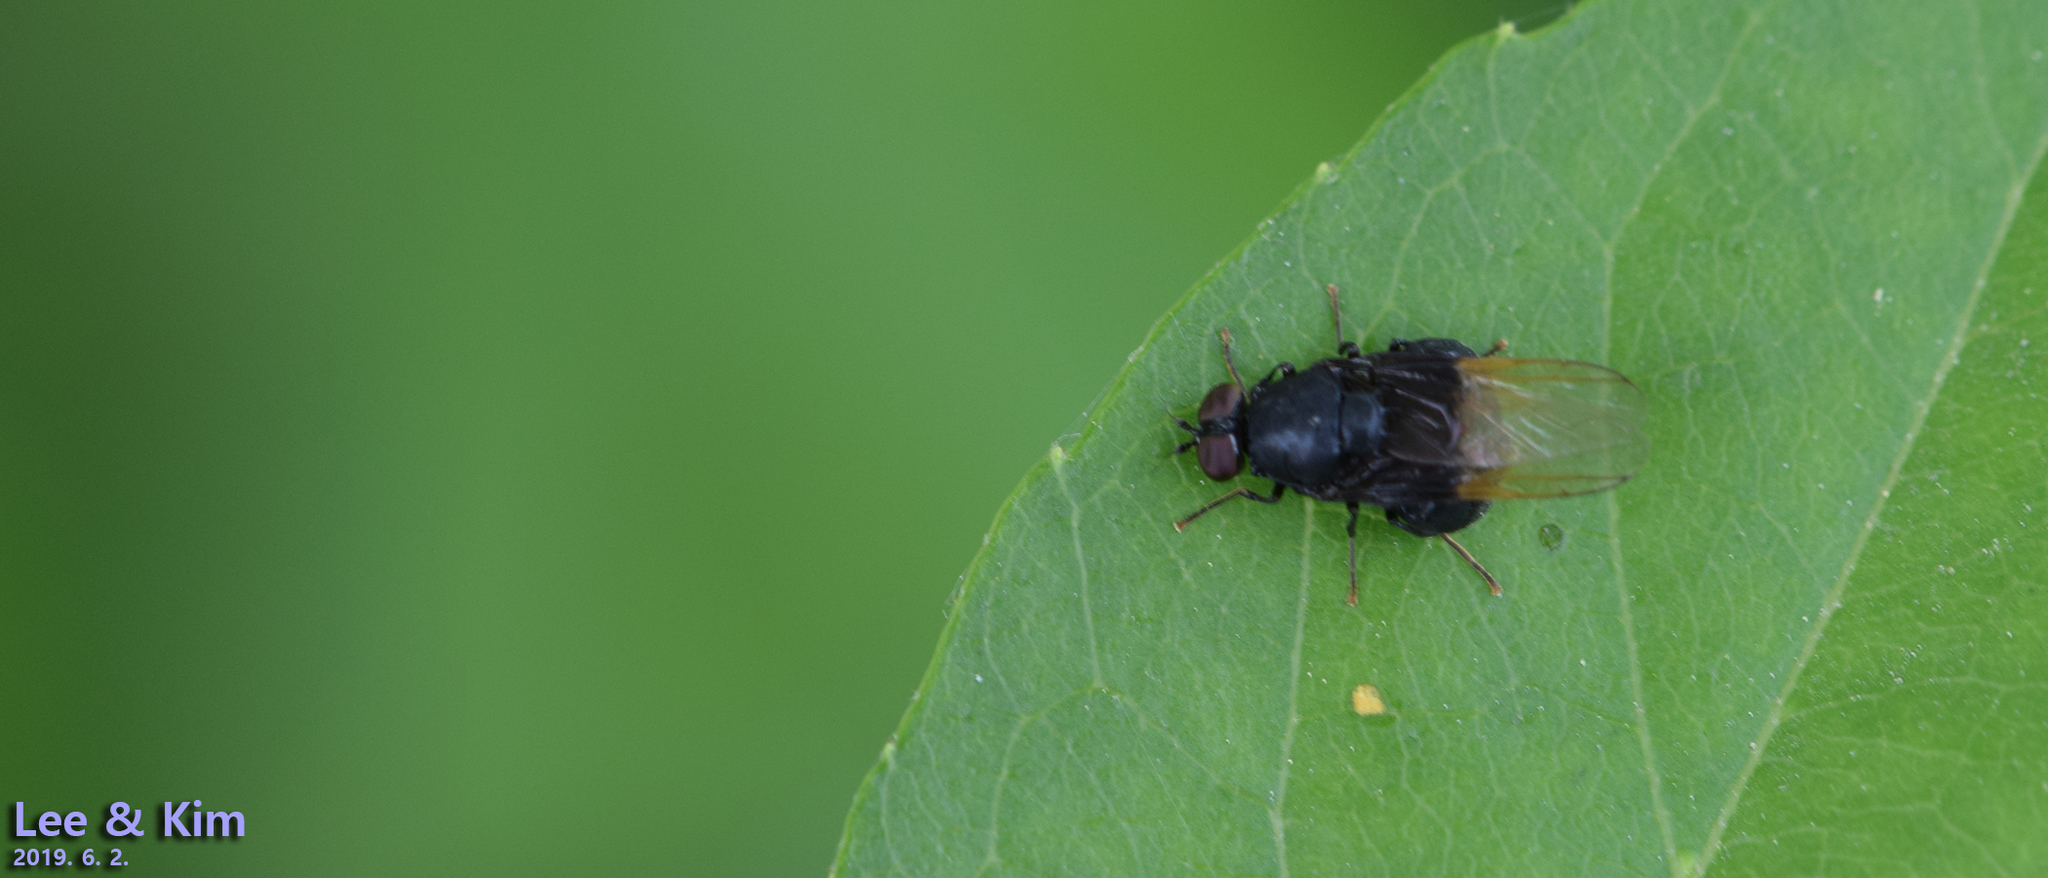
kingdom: Animalia
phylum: Arthropoda
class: Insecta
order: Diptera
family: Stratiomyidae
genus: Craspedometopon
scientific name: Craspedometopon
